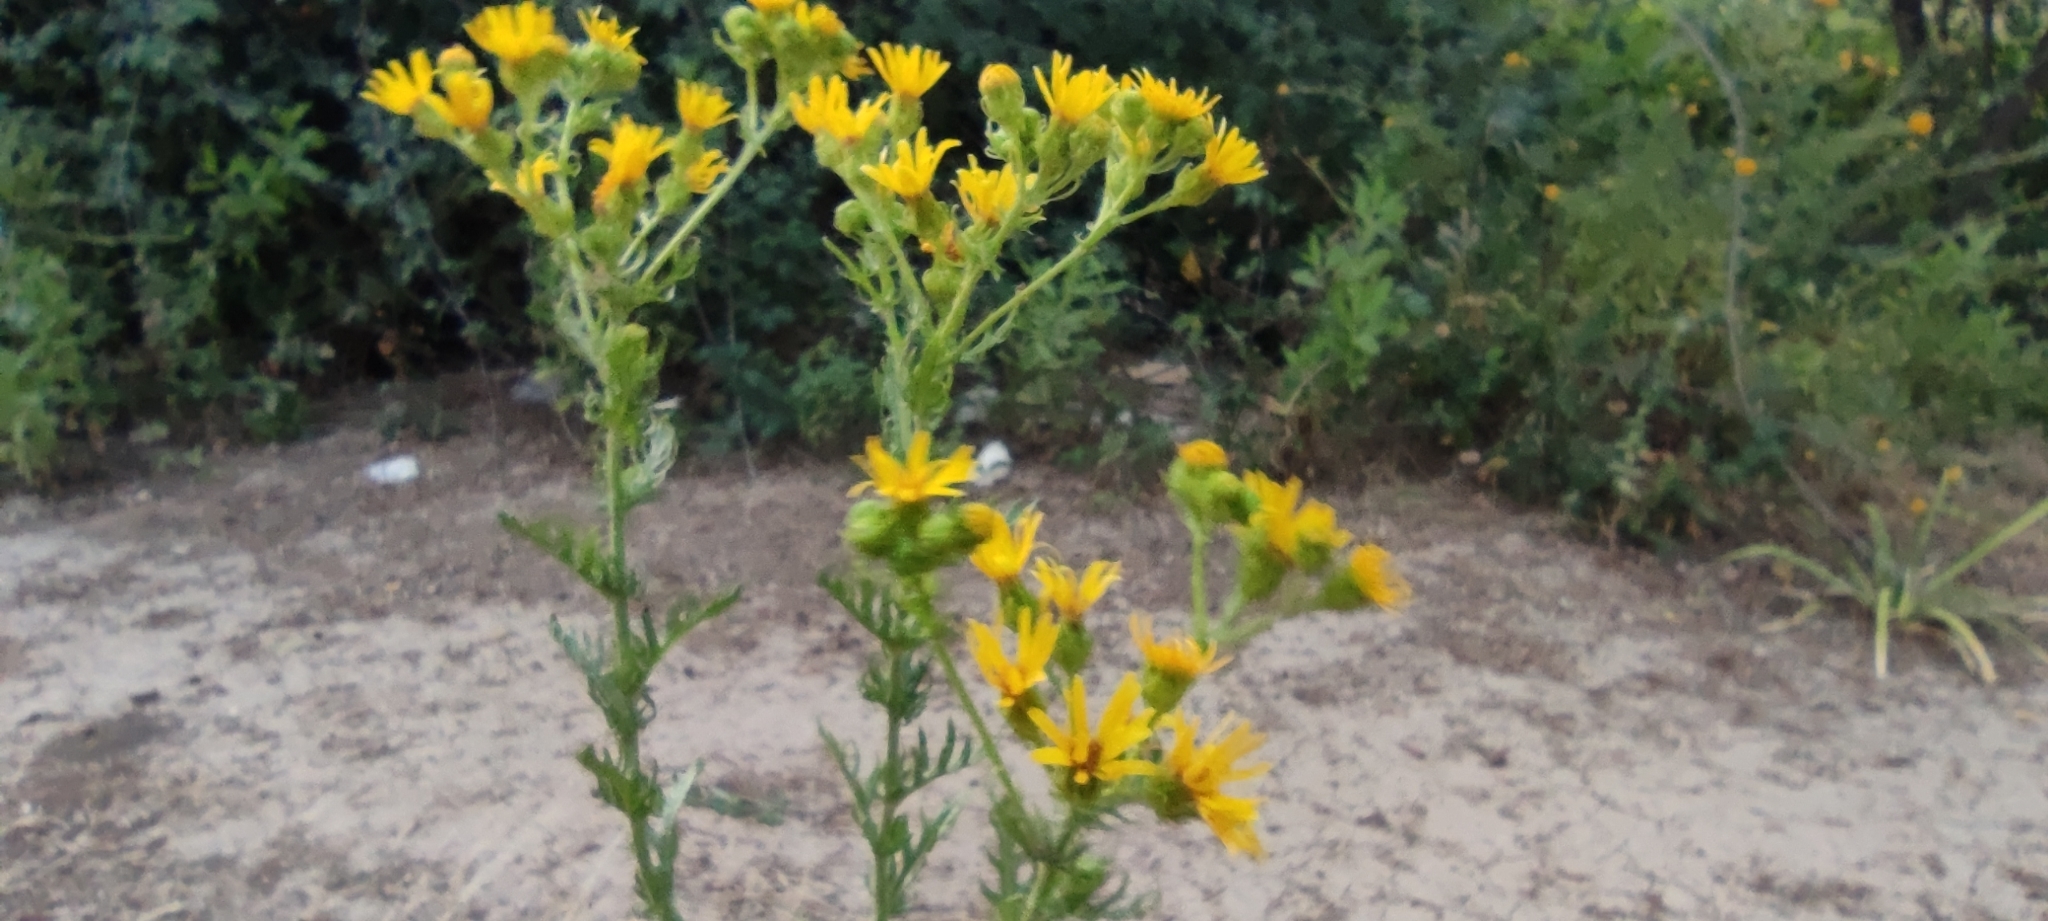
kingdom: Plantae
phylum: Tracheophyta
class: Magnoliopsida
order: Asterales
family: Asteraceae
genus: Jacobaea
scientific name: Jacobaea vulgaris
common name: Stinking willie
